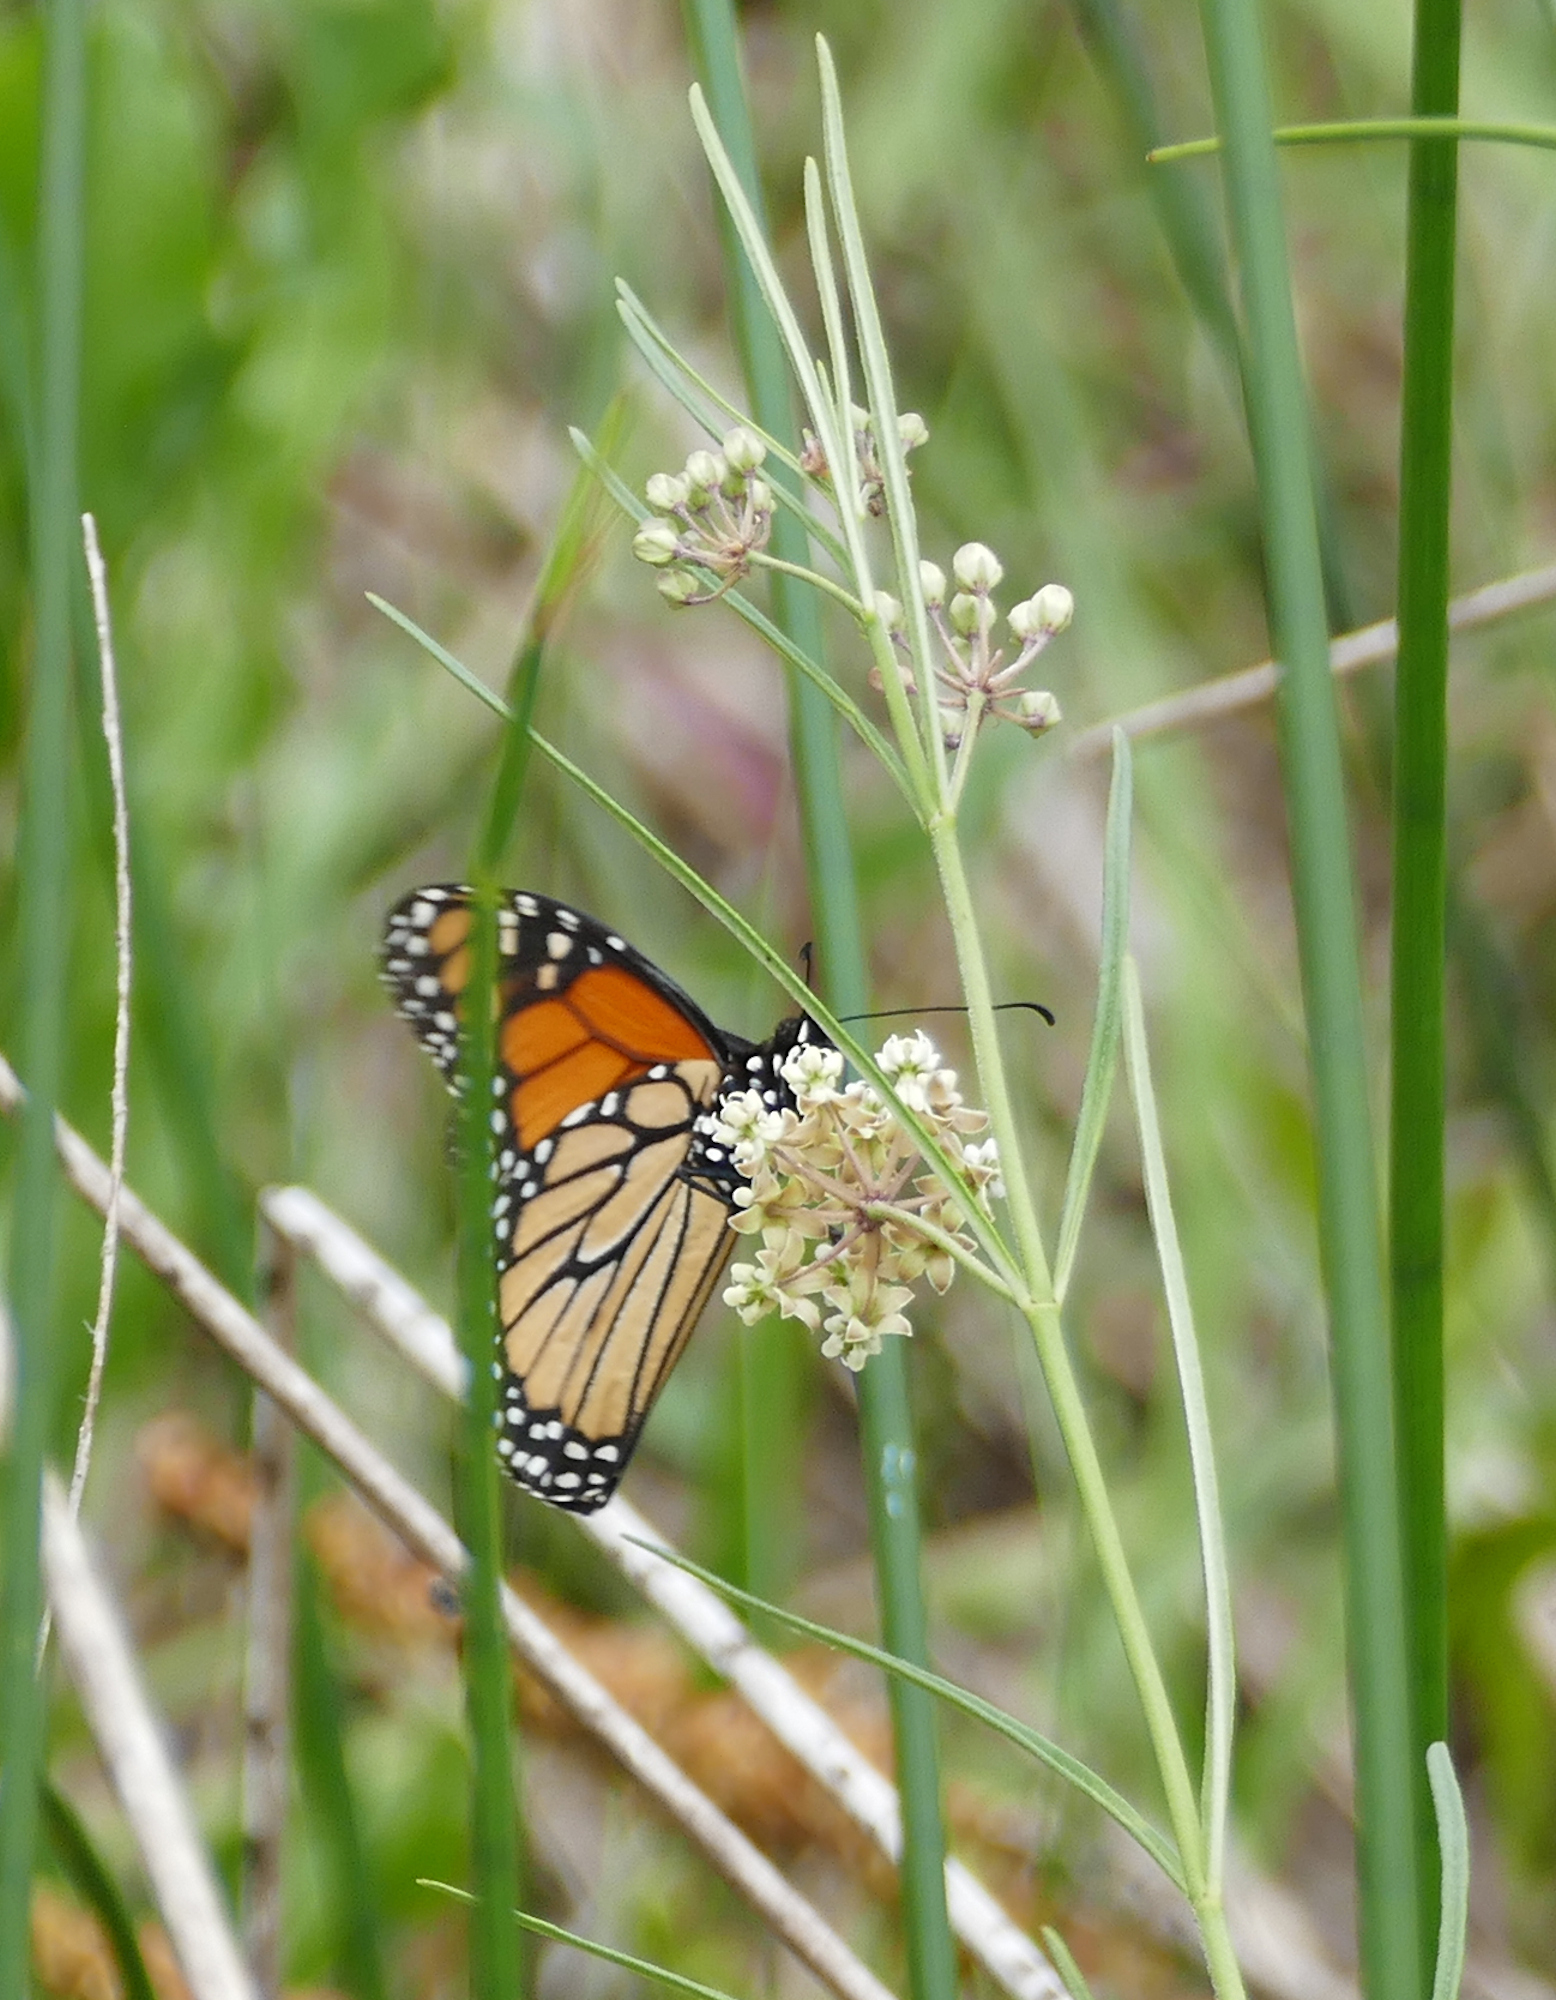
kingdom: Animalia
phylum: Arthropoda
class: Insecta
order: Lepidoptera
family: Nymphalidae
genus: Danaus
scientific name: Danaus plexippus
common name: Monarch
